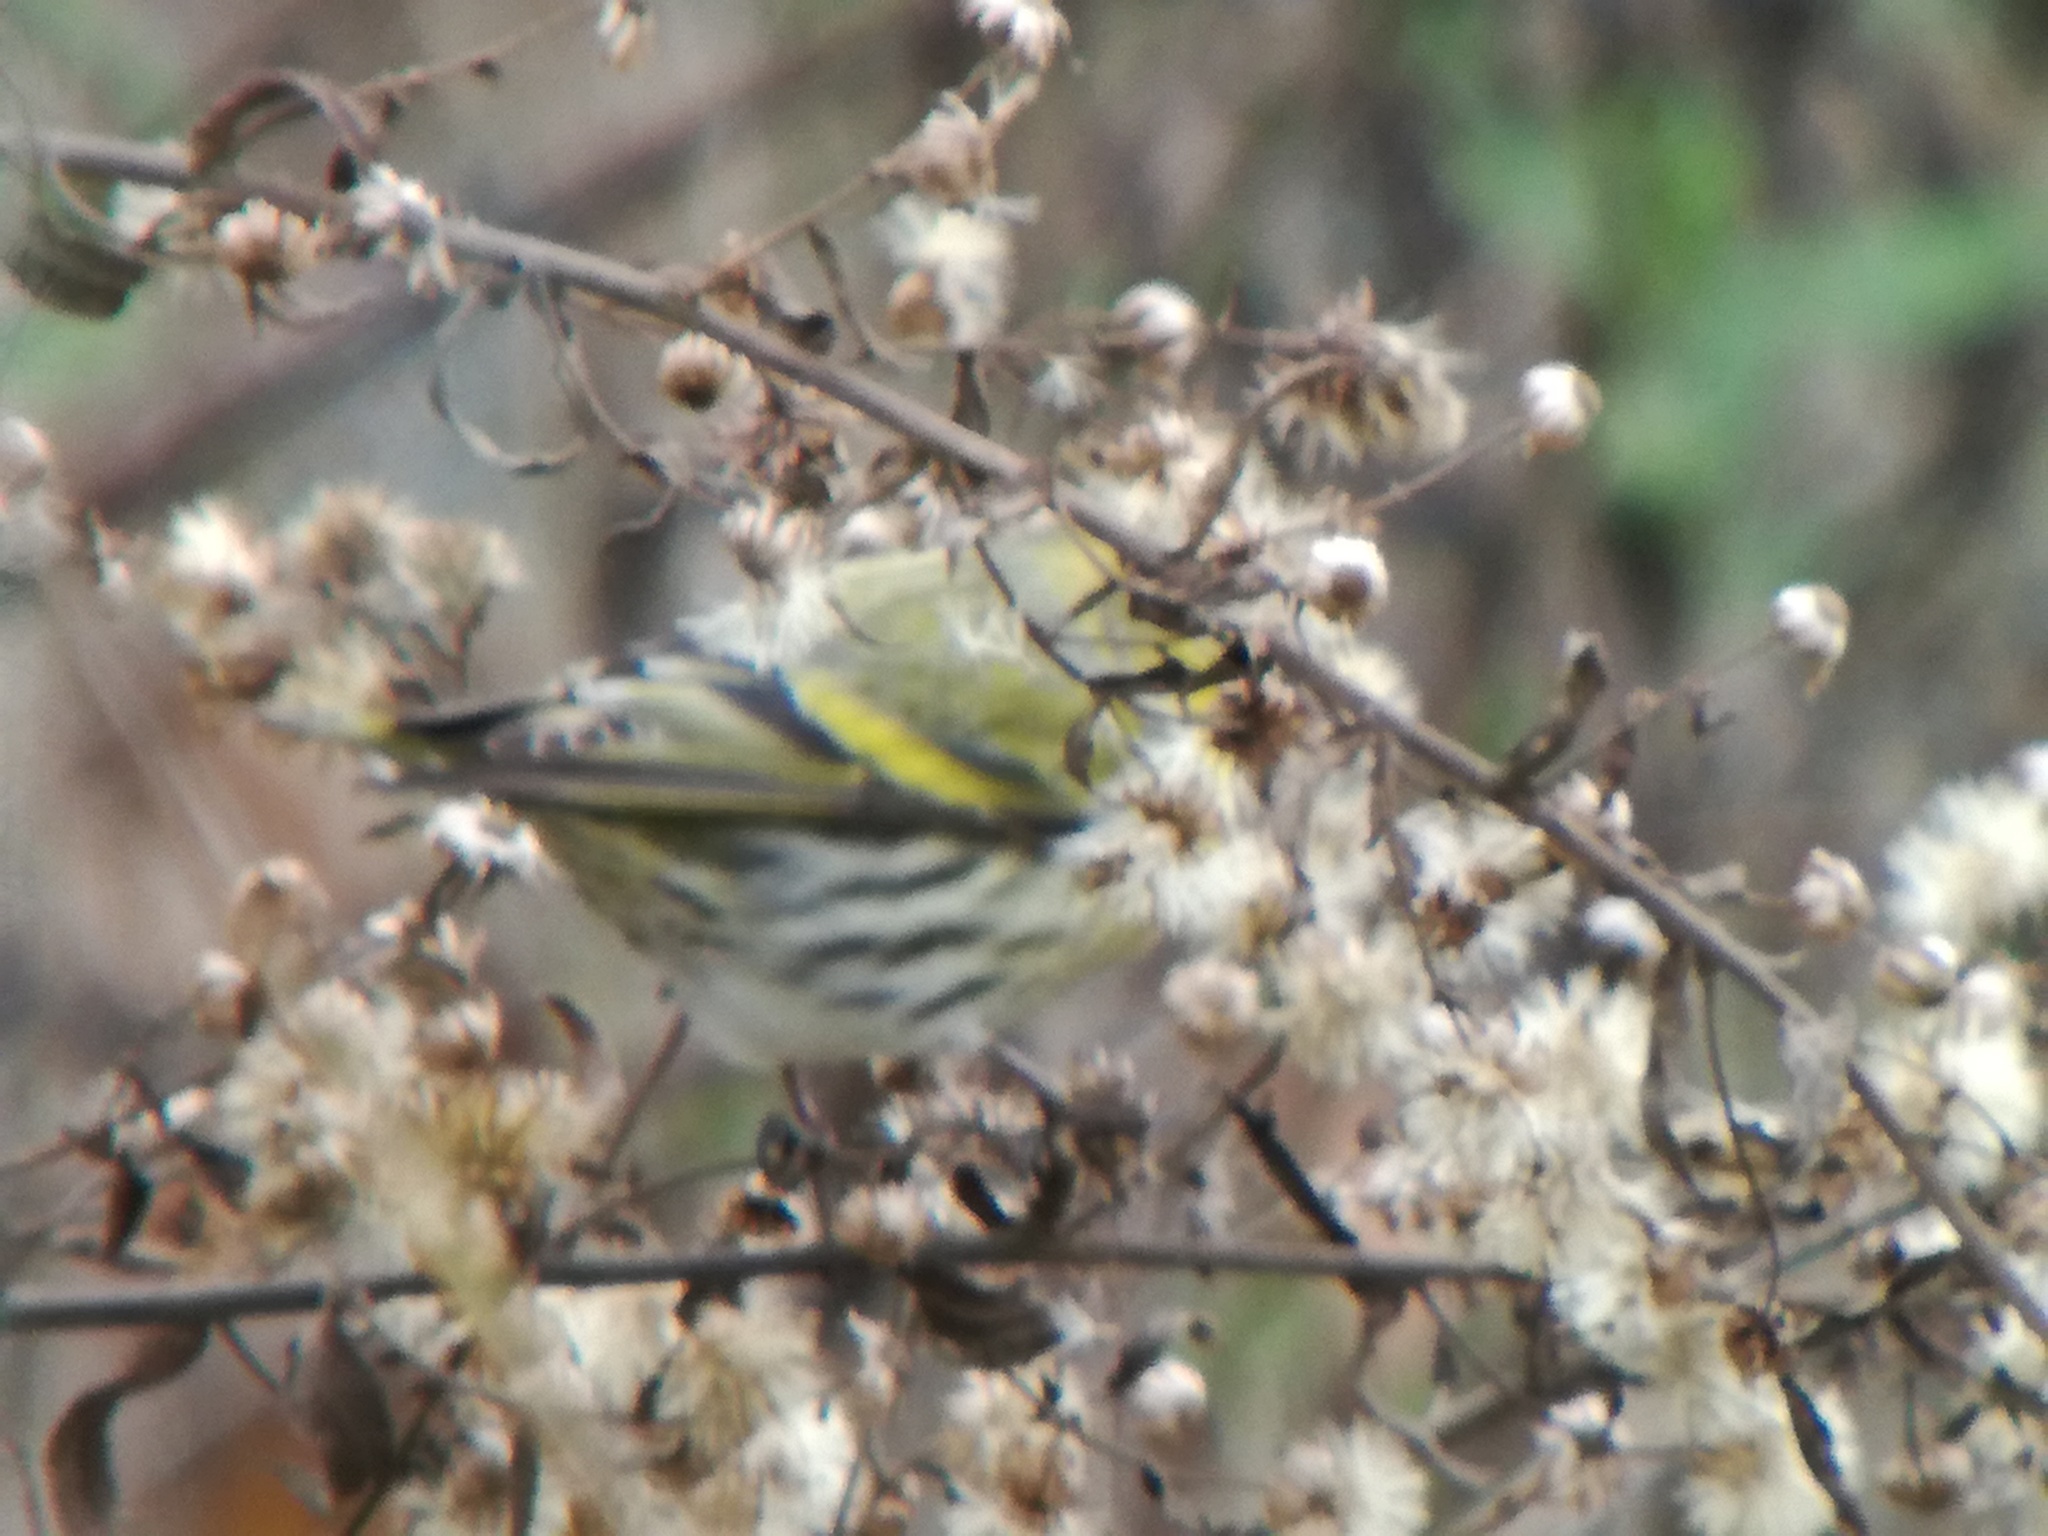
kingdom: Animalia
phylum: Chordata
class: Aves
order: Passeriformes
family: Fringillidae
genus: Spinus
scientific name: Spinus spinus
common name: Eurasian siskin
